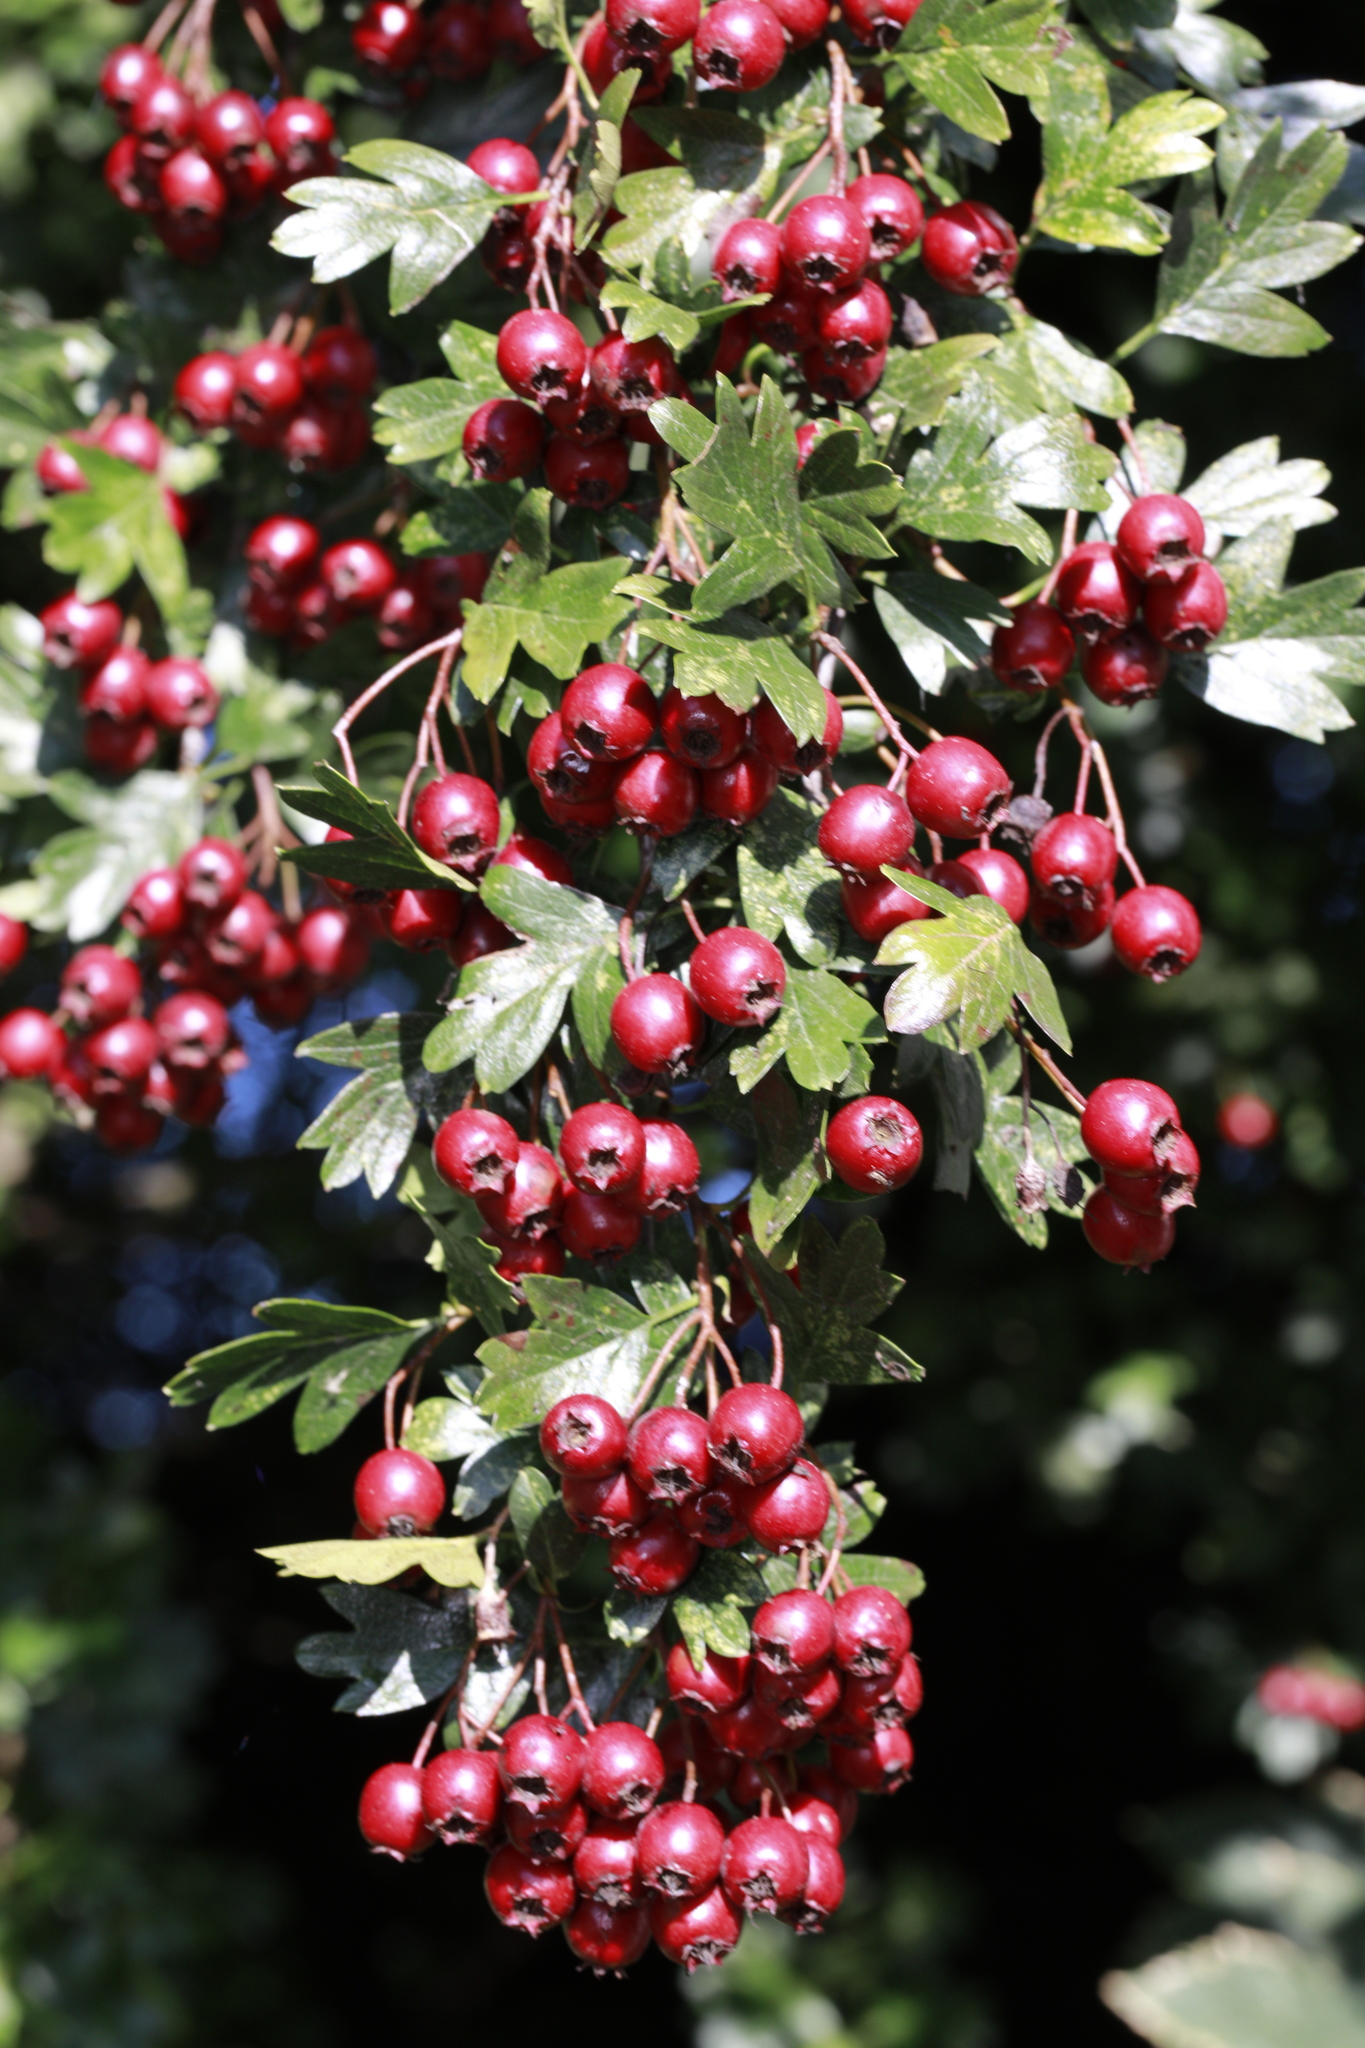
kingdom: Plantae
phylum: Tracheophyta
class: Magnoliopsida
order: Rosales
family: Rosaceae
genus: Crataegus
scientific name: Crataegus monogyna
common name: Hawthorn
